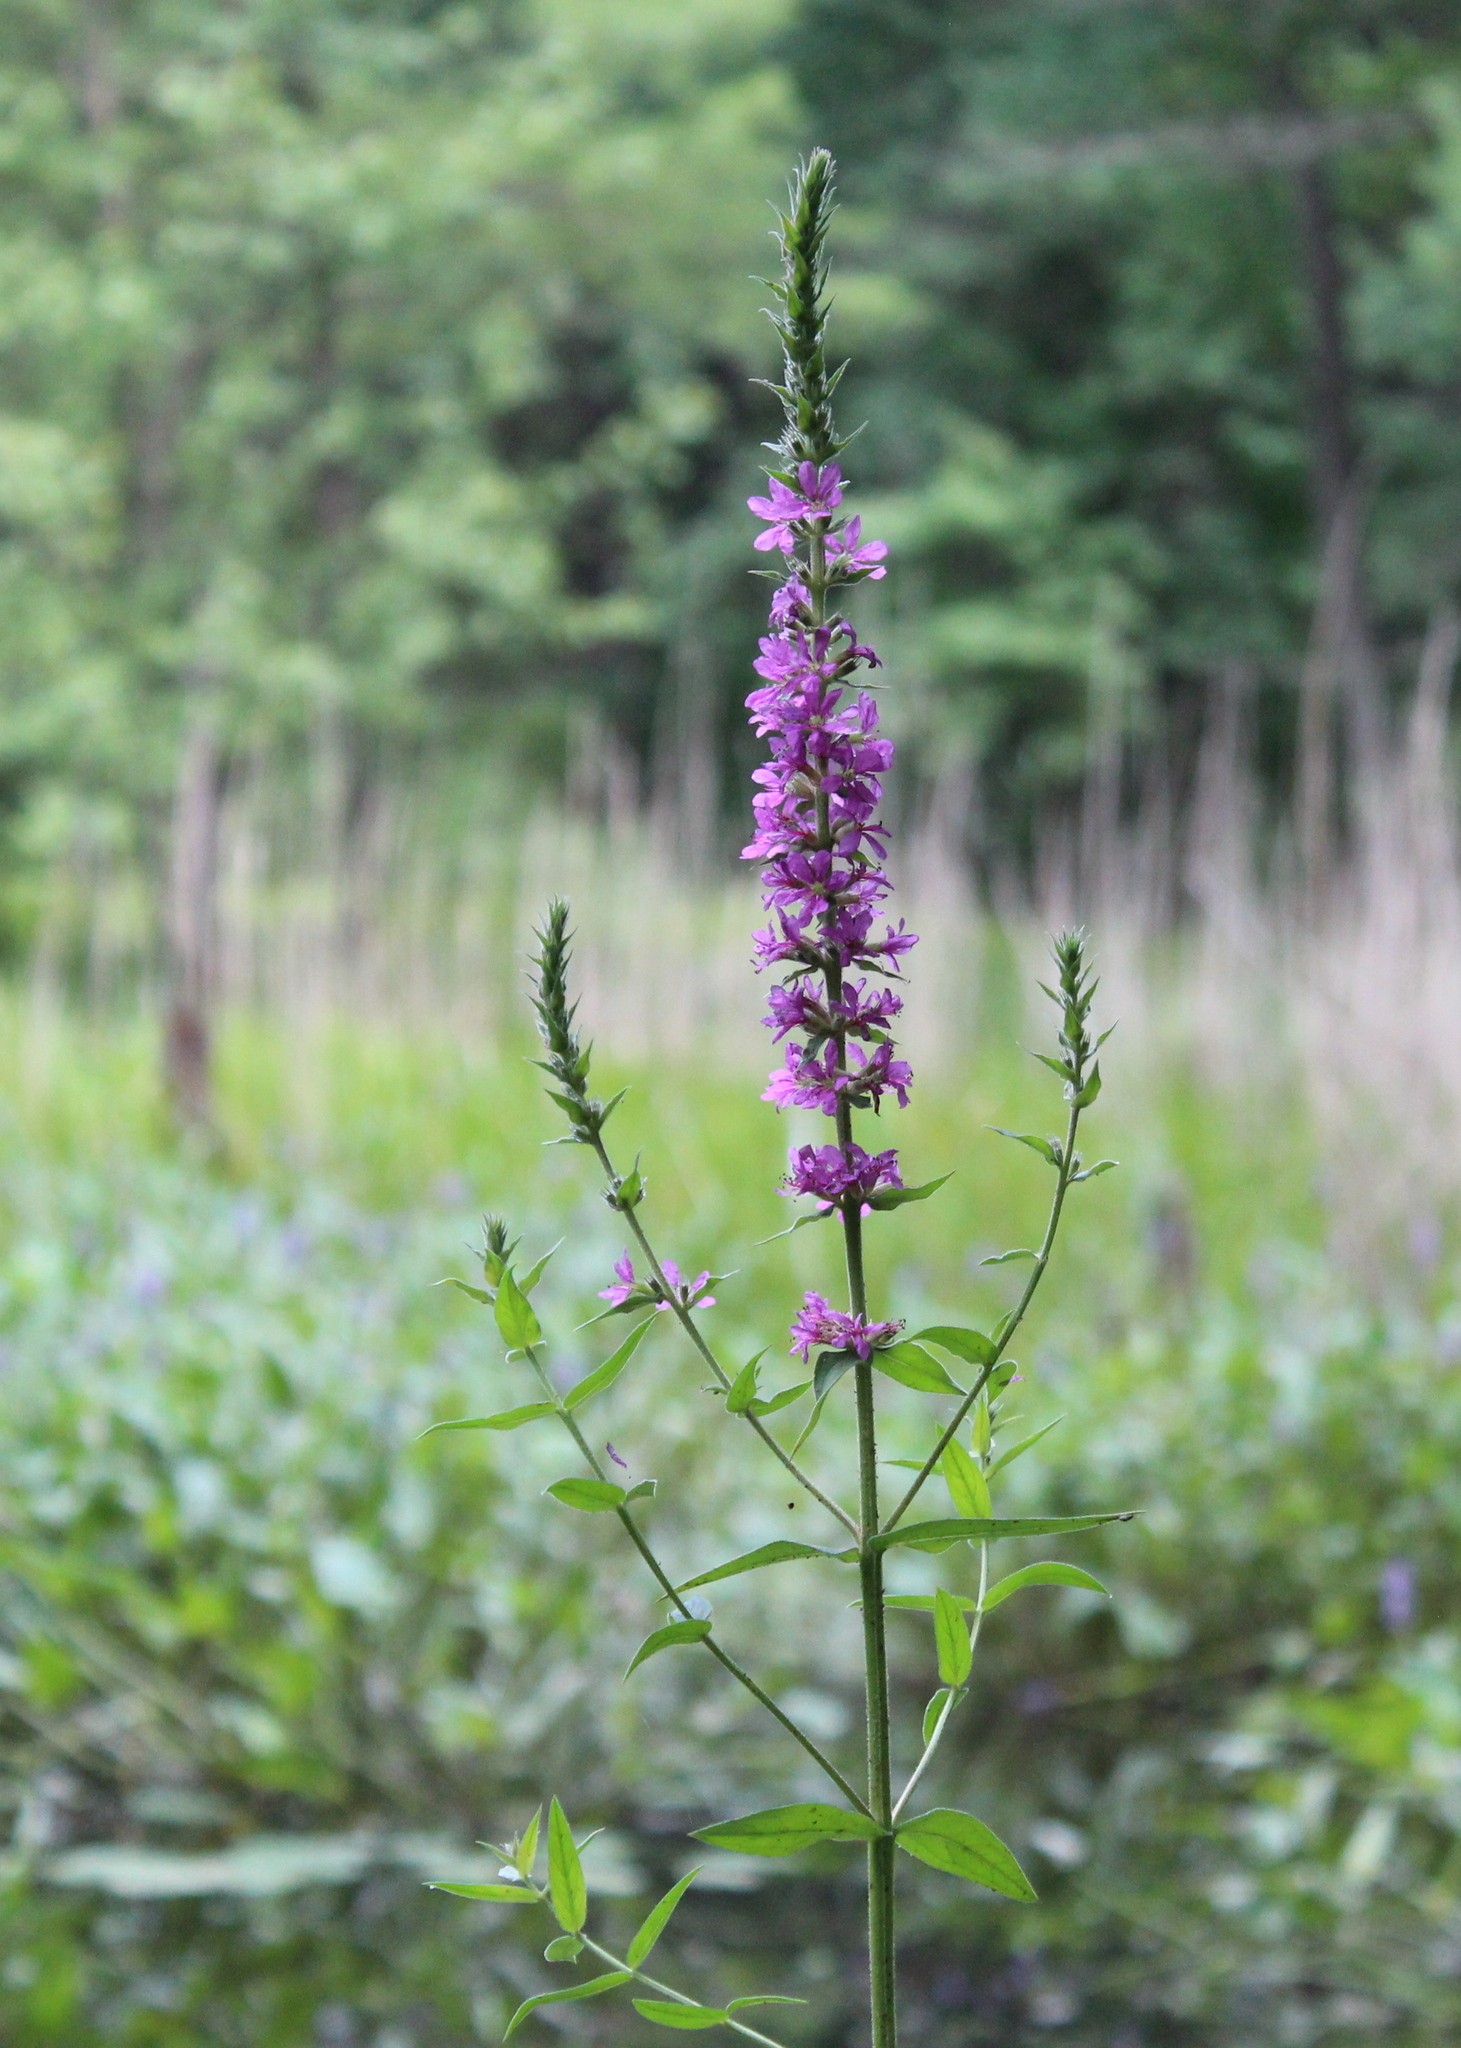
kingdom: Plantae
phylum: Tracheophyta
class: Magnoliopsida
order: Myrtales
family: Lythraceae
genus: Lythrum
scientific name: Lythrum salicaria
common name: Purple loosestrife
